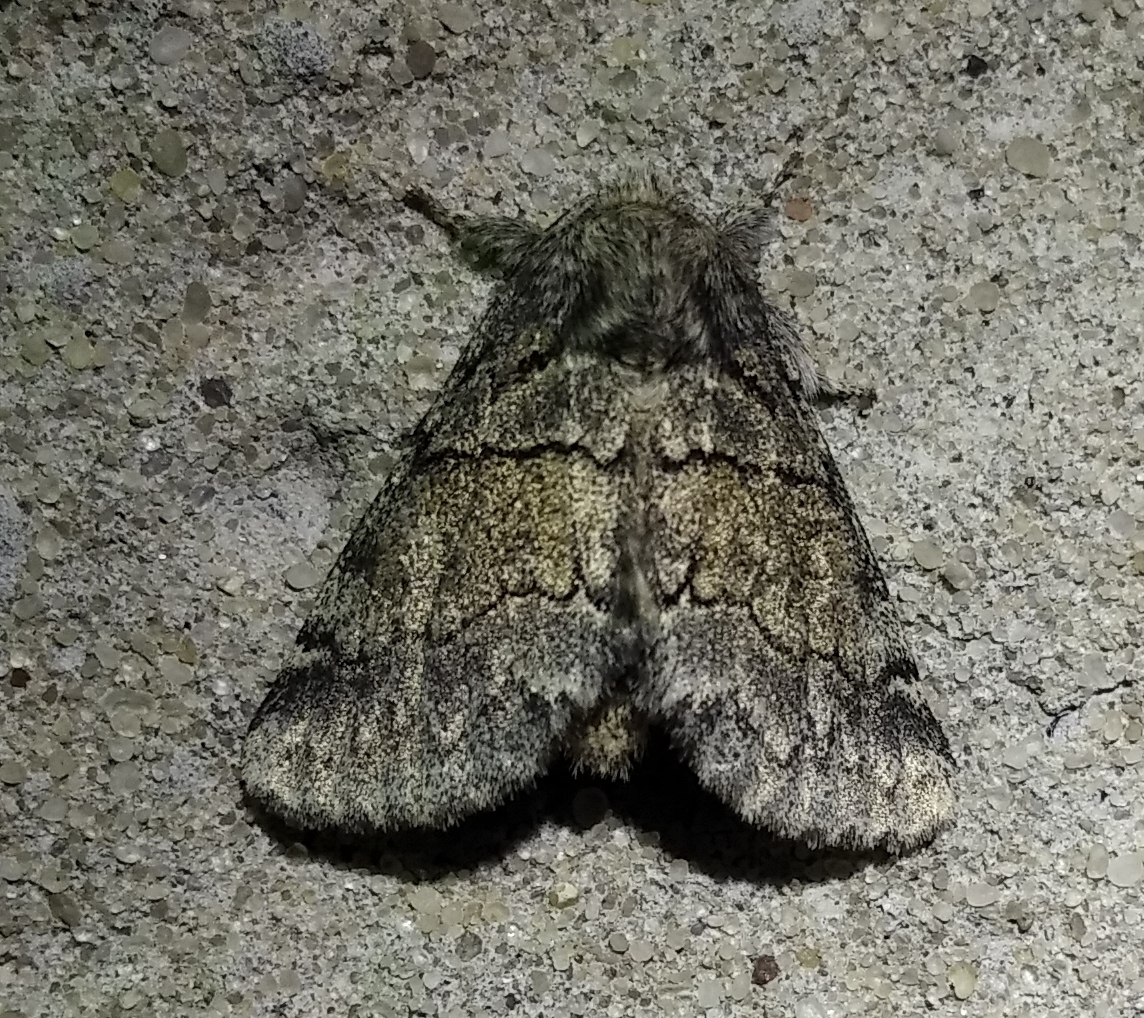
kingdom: Animalia
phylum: Arthropoda
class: Insecta
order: Lepidoptera
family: Notodontidae
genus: Gluphisia
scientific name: Gluphisia crenata
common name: Dusky marbled brown
